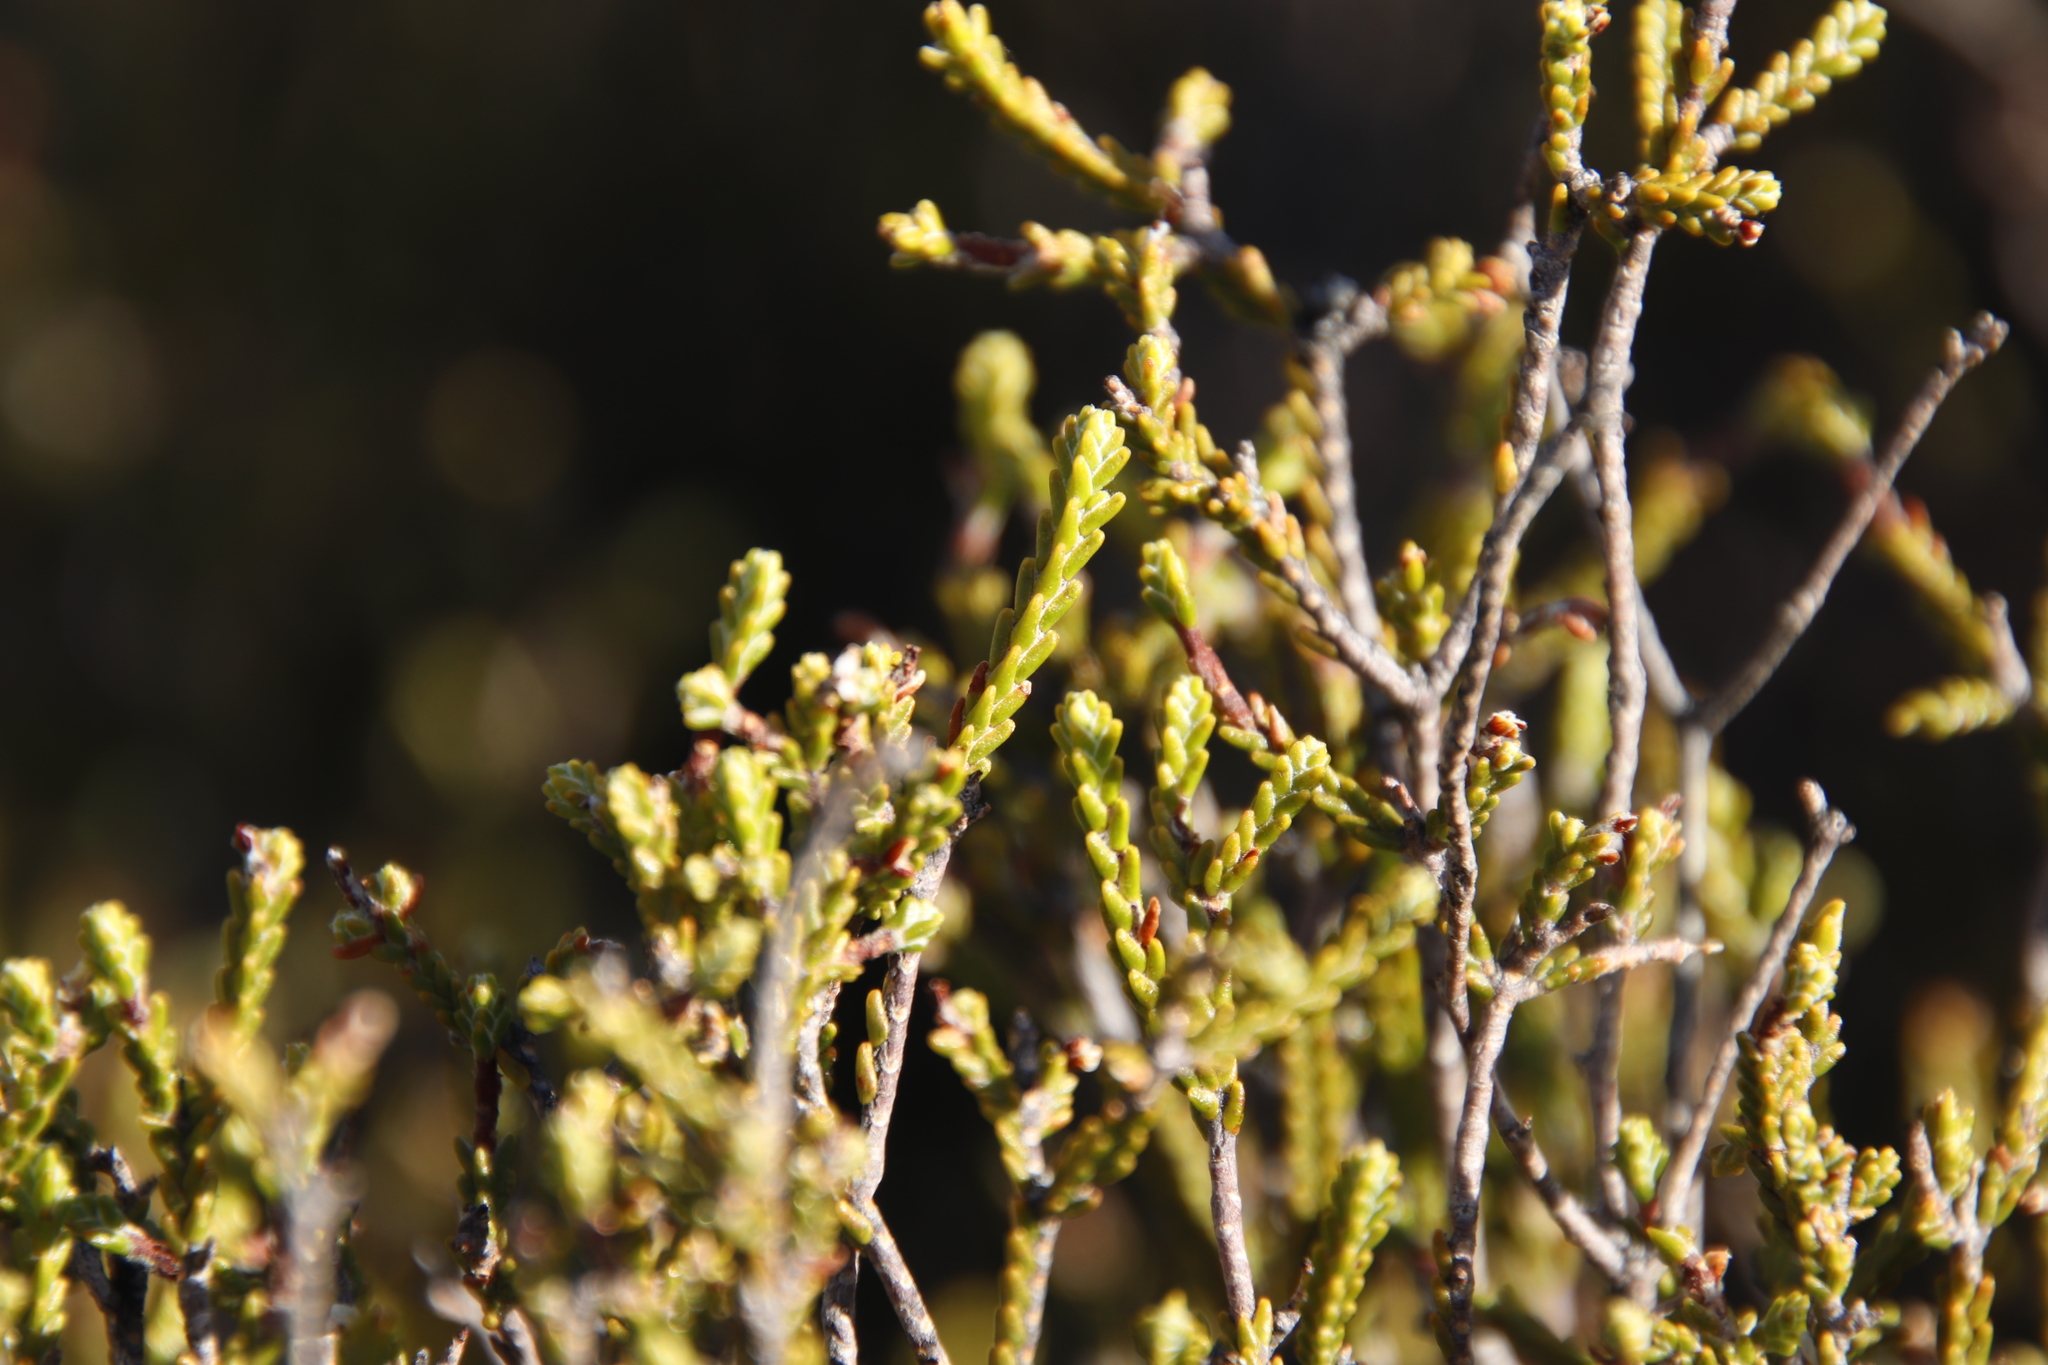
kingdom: Plantae
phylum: Tracheophyta
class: Magnoliopsida
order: Malvales
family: Thymelaeaceae
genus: Passerina
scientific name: Passerina truncata
